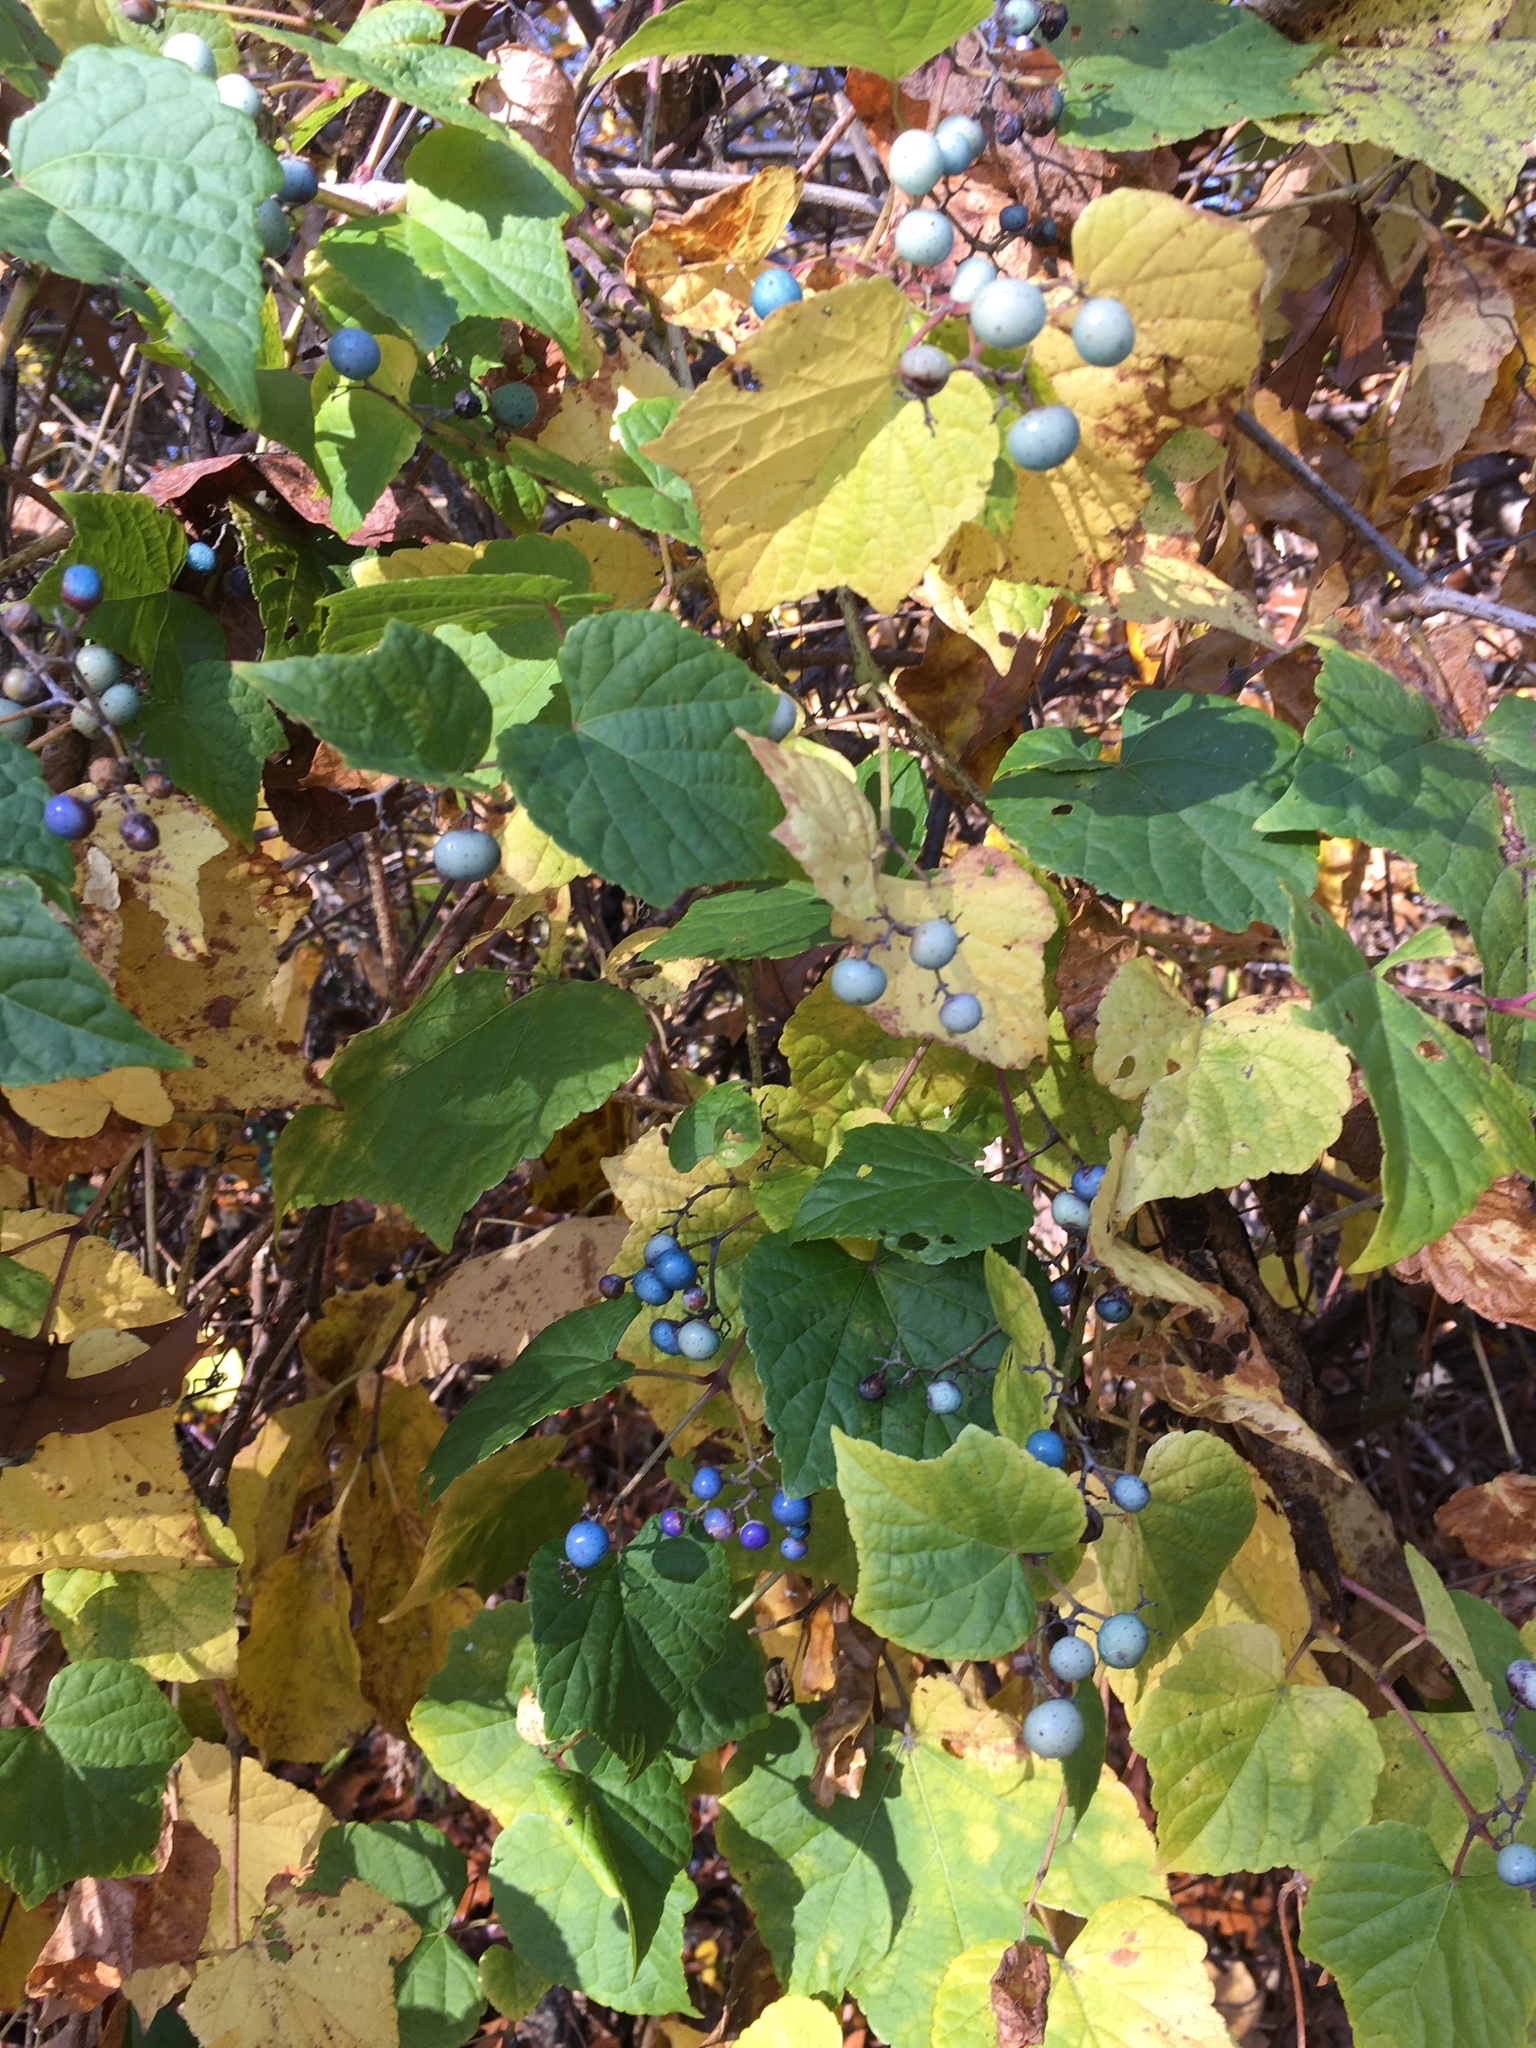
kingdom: Plantae
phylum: Tracheophyta
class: Magnoliopsida
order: Vitales
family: Vitaceae
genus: Ampelopsis
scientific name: Ampelopsis glandulosa
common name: Amur peppervine
